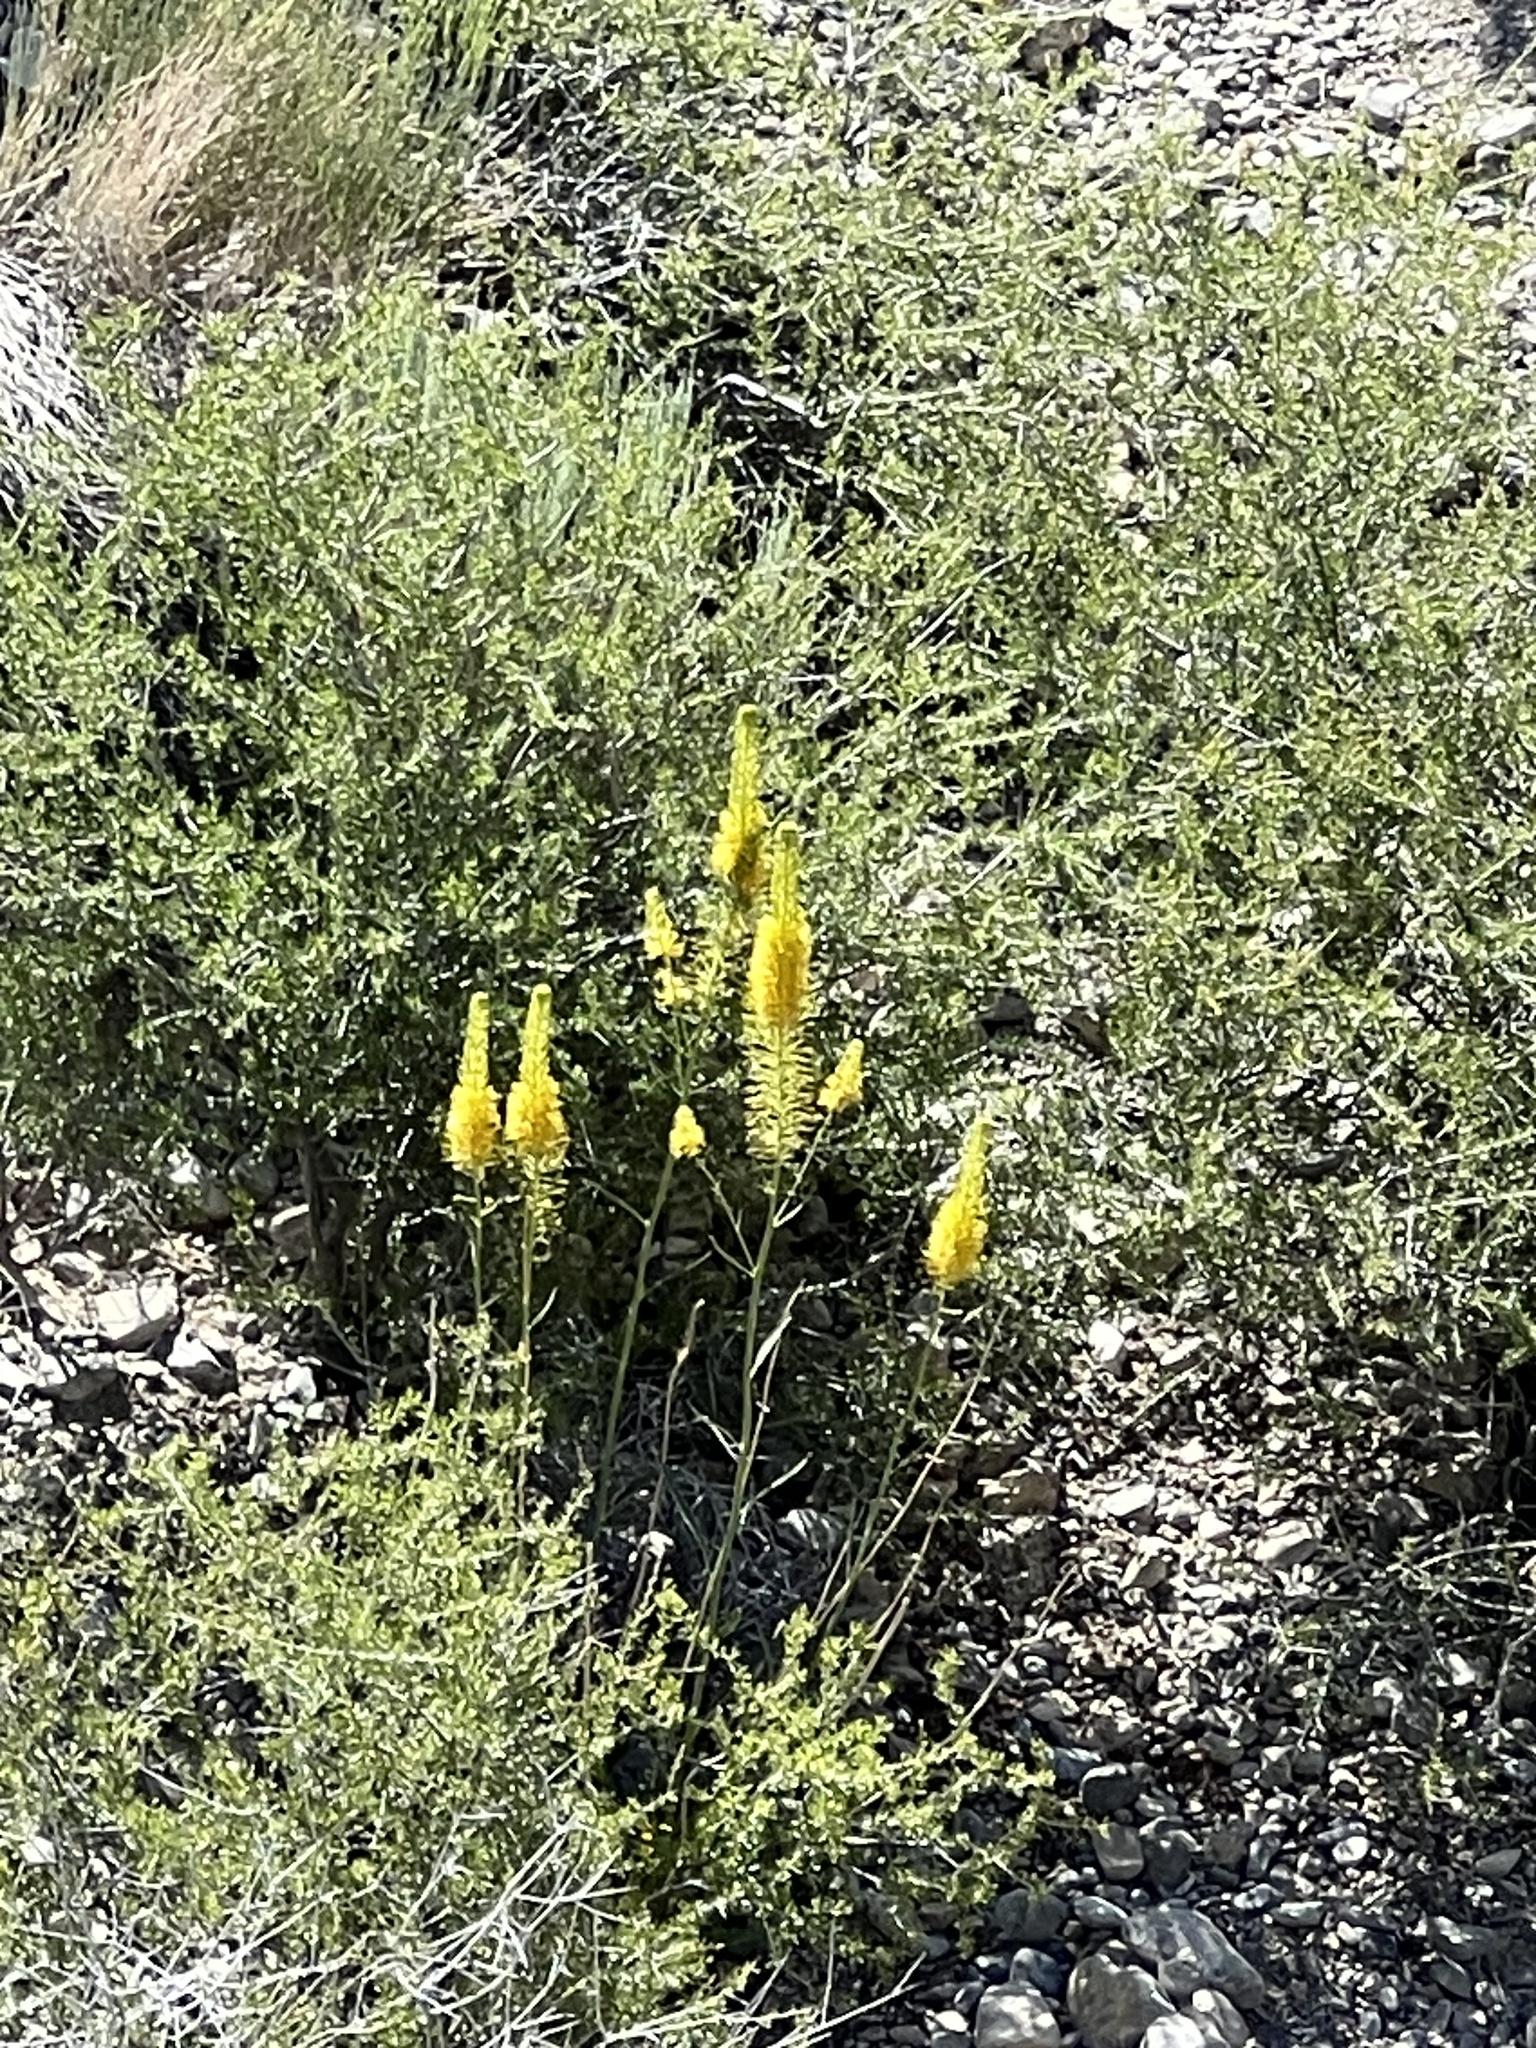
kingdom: Plantae
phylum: Tracheophyta
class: Magnoliopsida
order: Brassicales
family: Brassicaceae
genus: Stanleya
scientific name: Stanleya elata
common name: Panamint prince's plume
